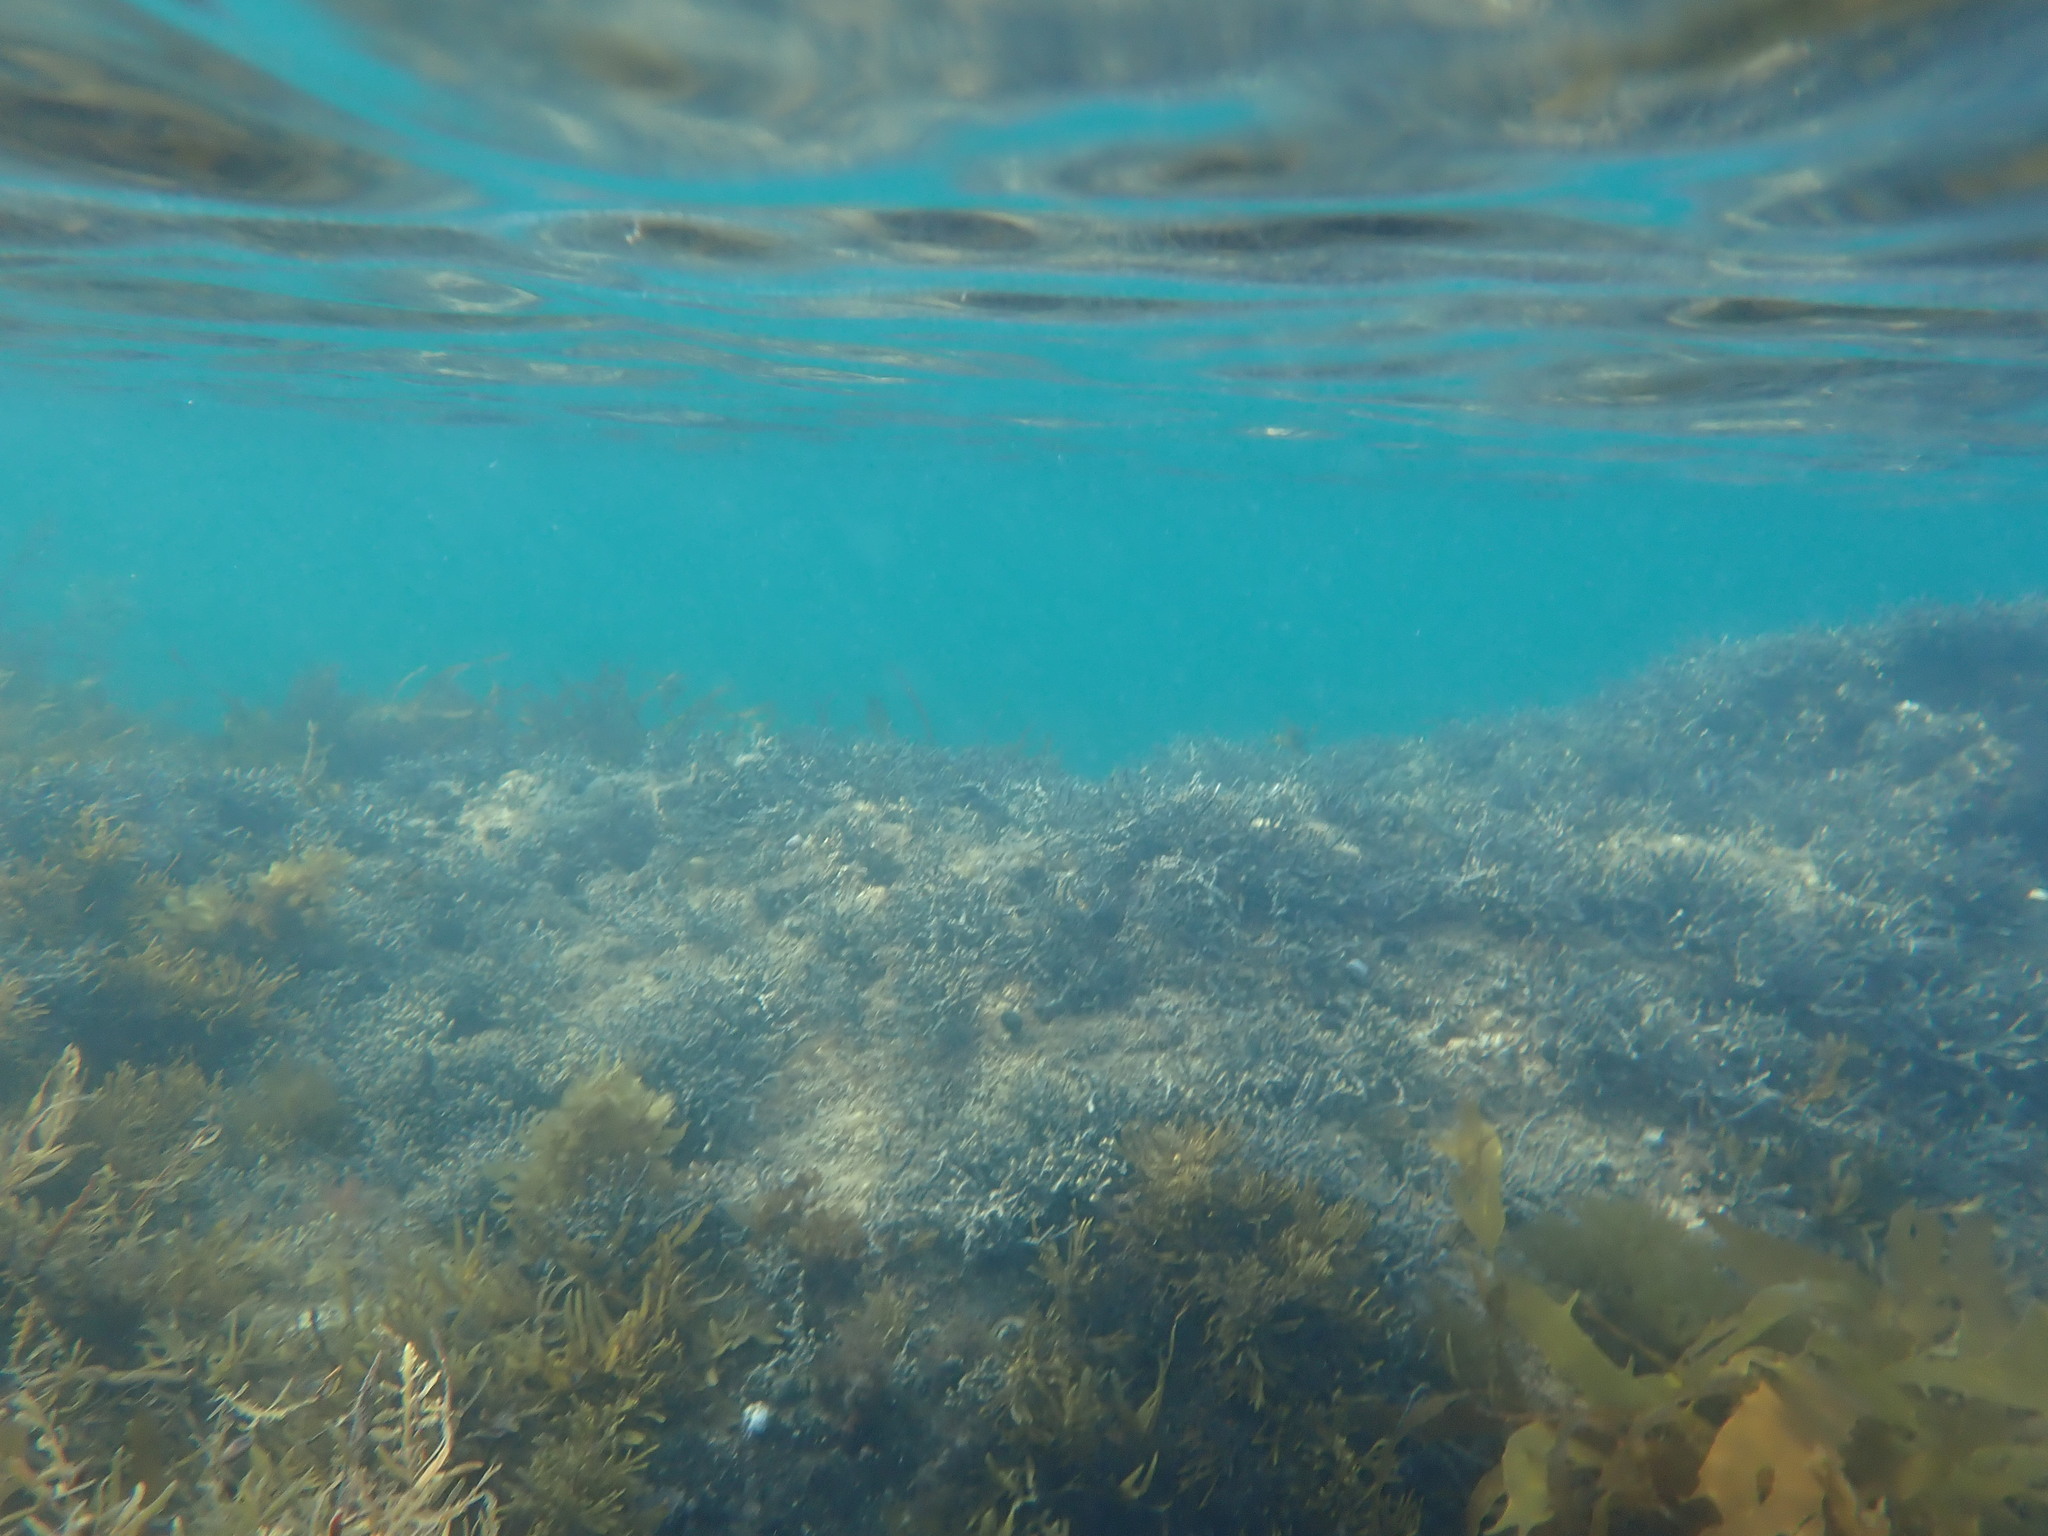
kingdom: Chromista
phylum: Ochrophyta
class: Phaeophyceae
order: Fucales
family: Sargassaceae
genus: Carpophyllum
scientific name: Carpophyllum maschalocarpum
